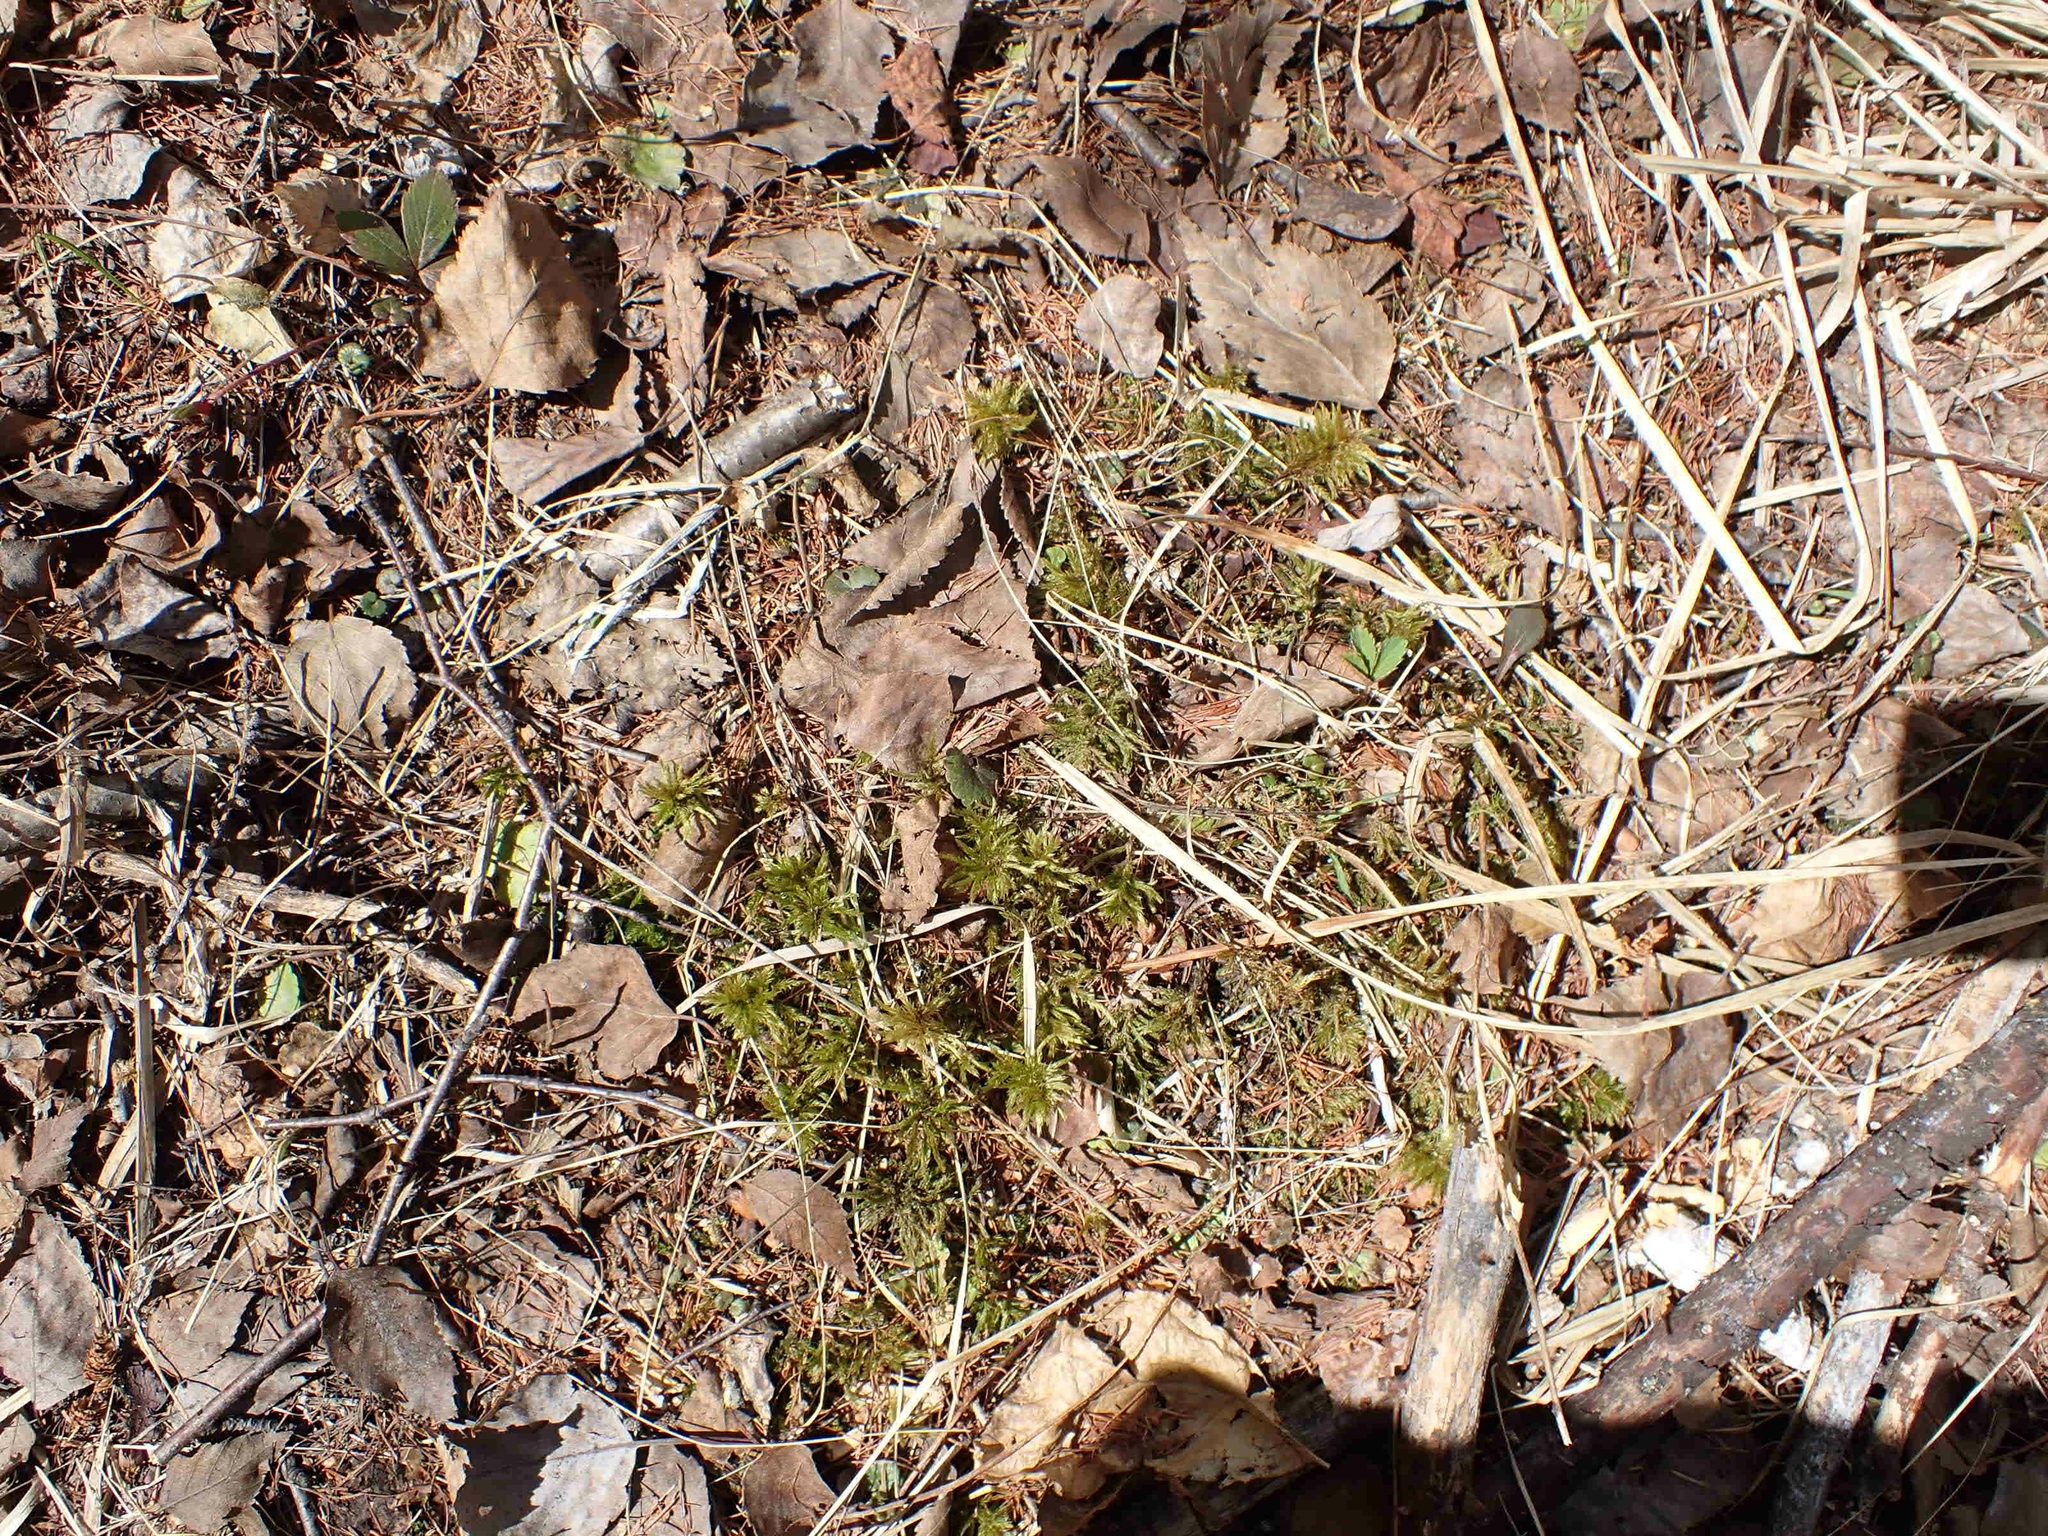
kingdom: Plantae
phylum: Bryophyta
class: Bryopsida
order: Hypnales
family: Climaciaceae
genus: Climacium
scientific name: Climacium dendroides
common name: Northern tree moss
